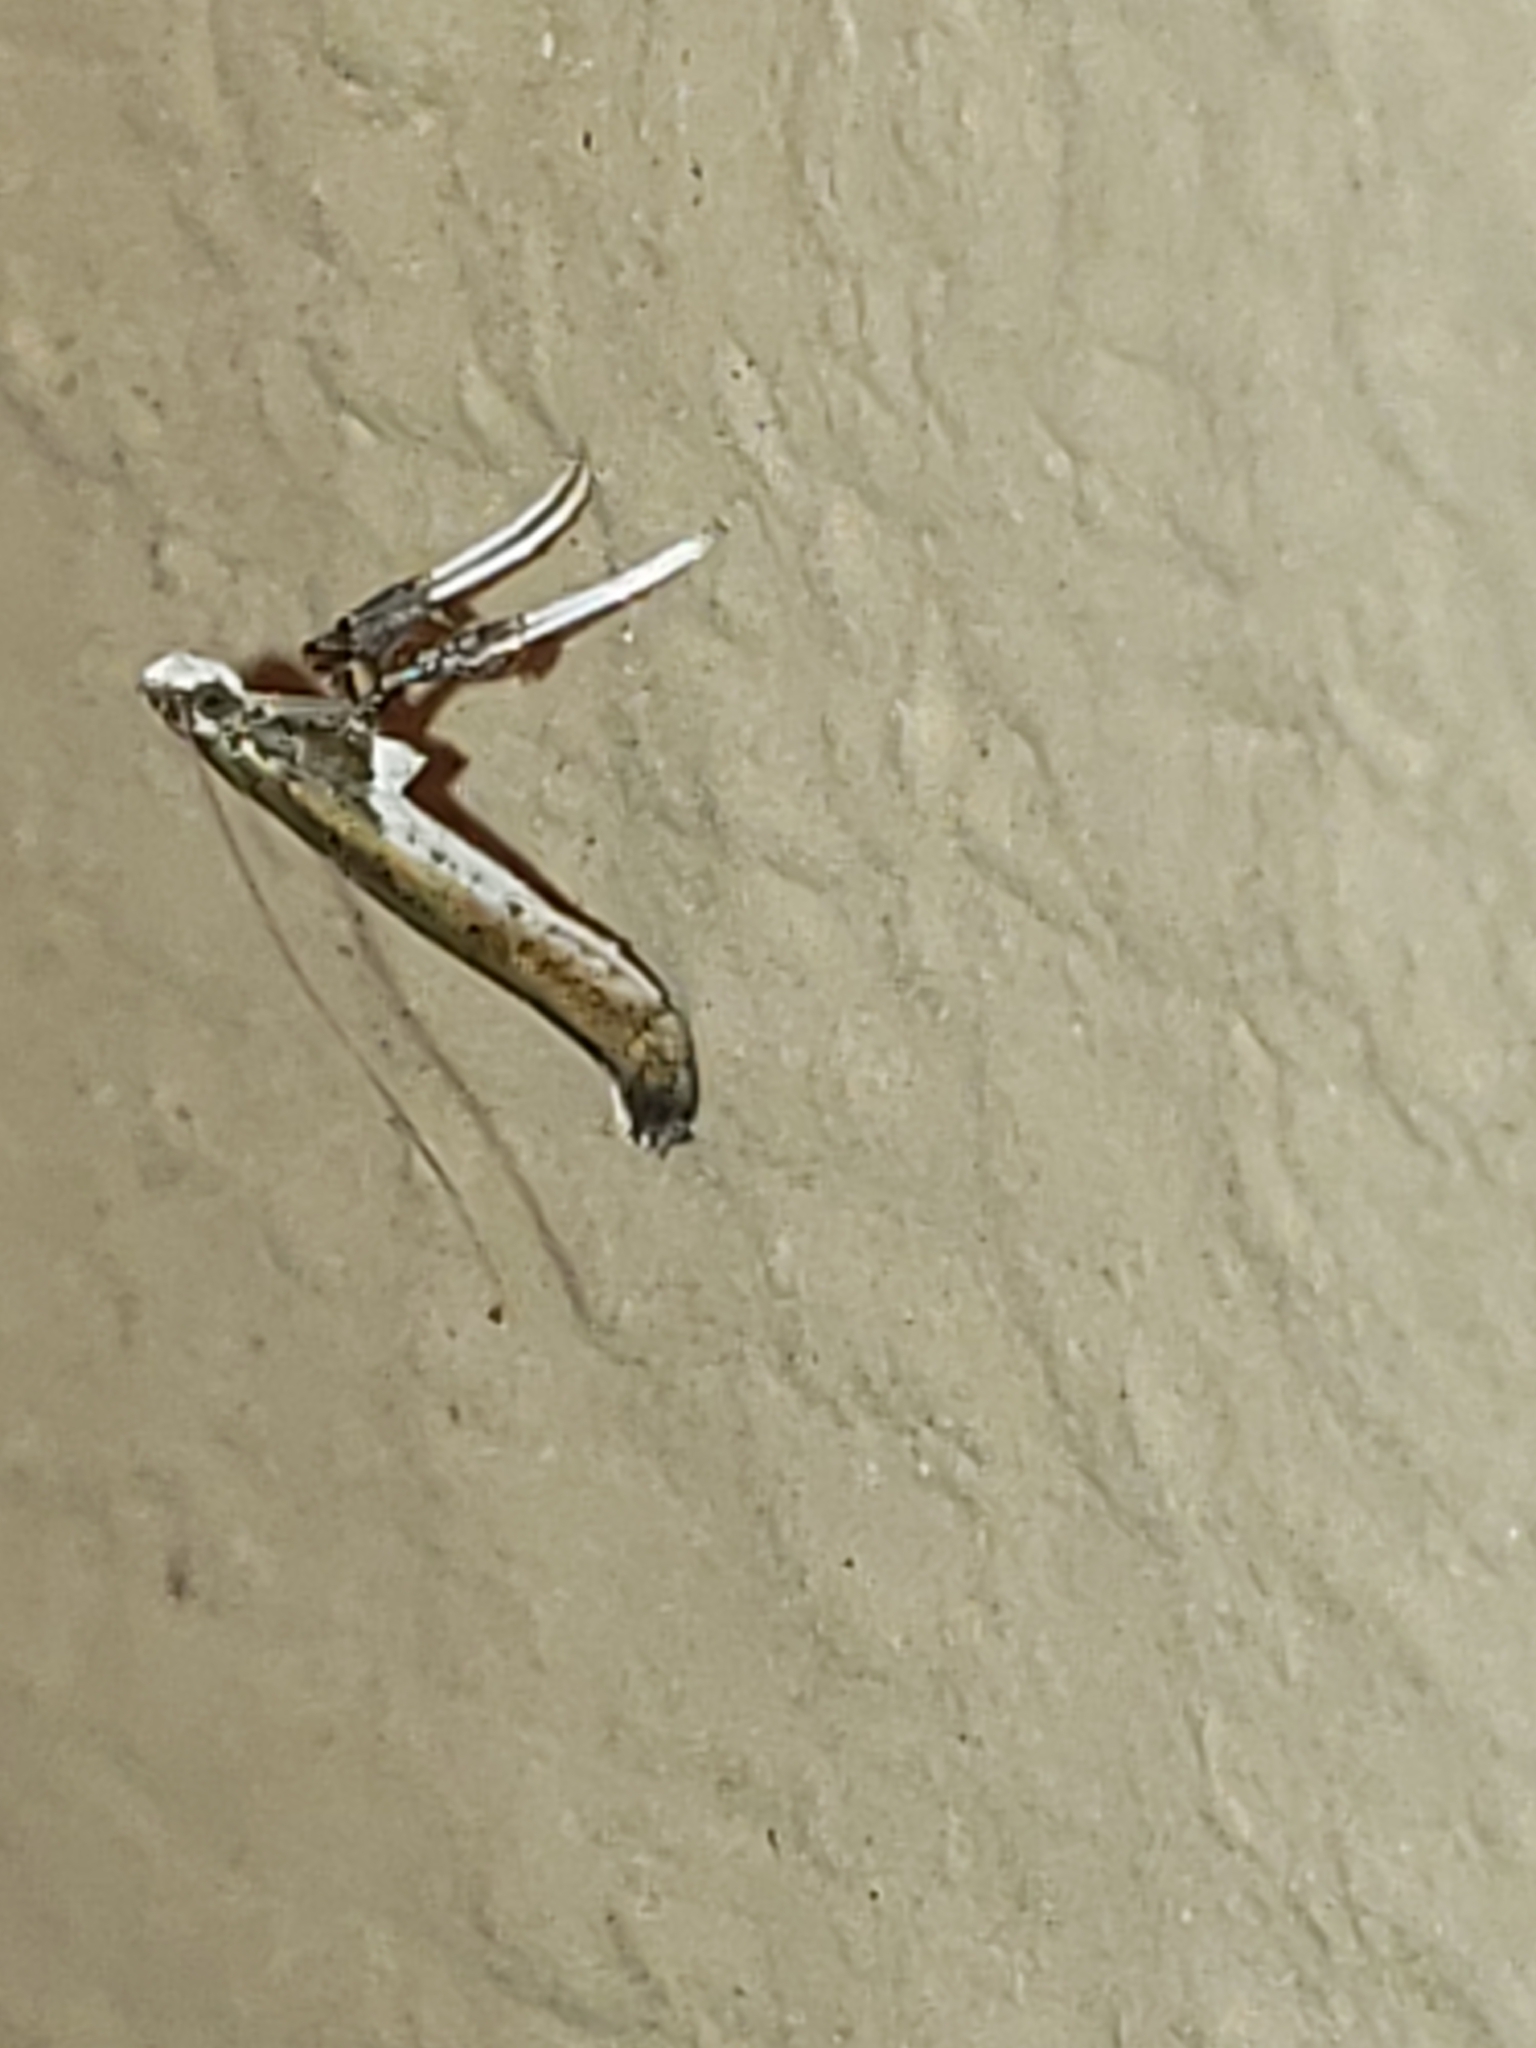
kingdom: Animalia
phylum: Arthropoda
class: Insecta
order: Lepidoptera
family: Gracillariidae
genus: Caloptilia
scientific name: Caloptilia rhoifoliella
